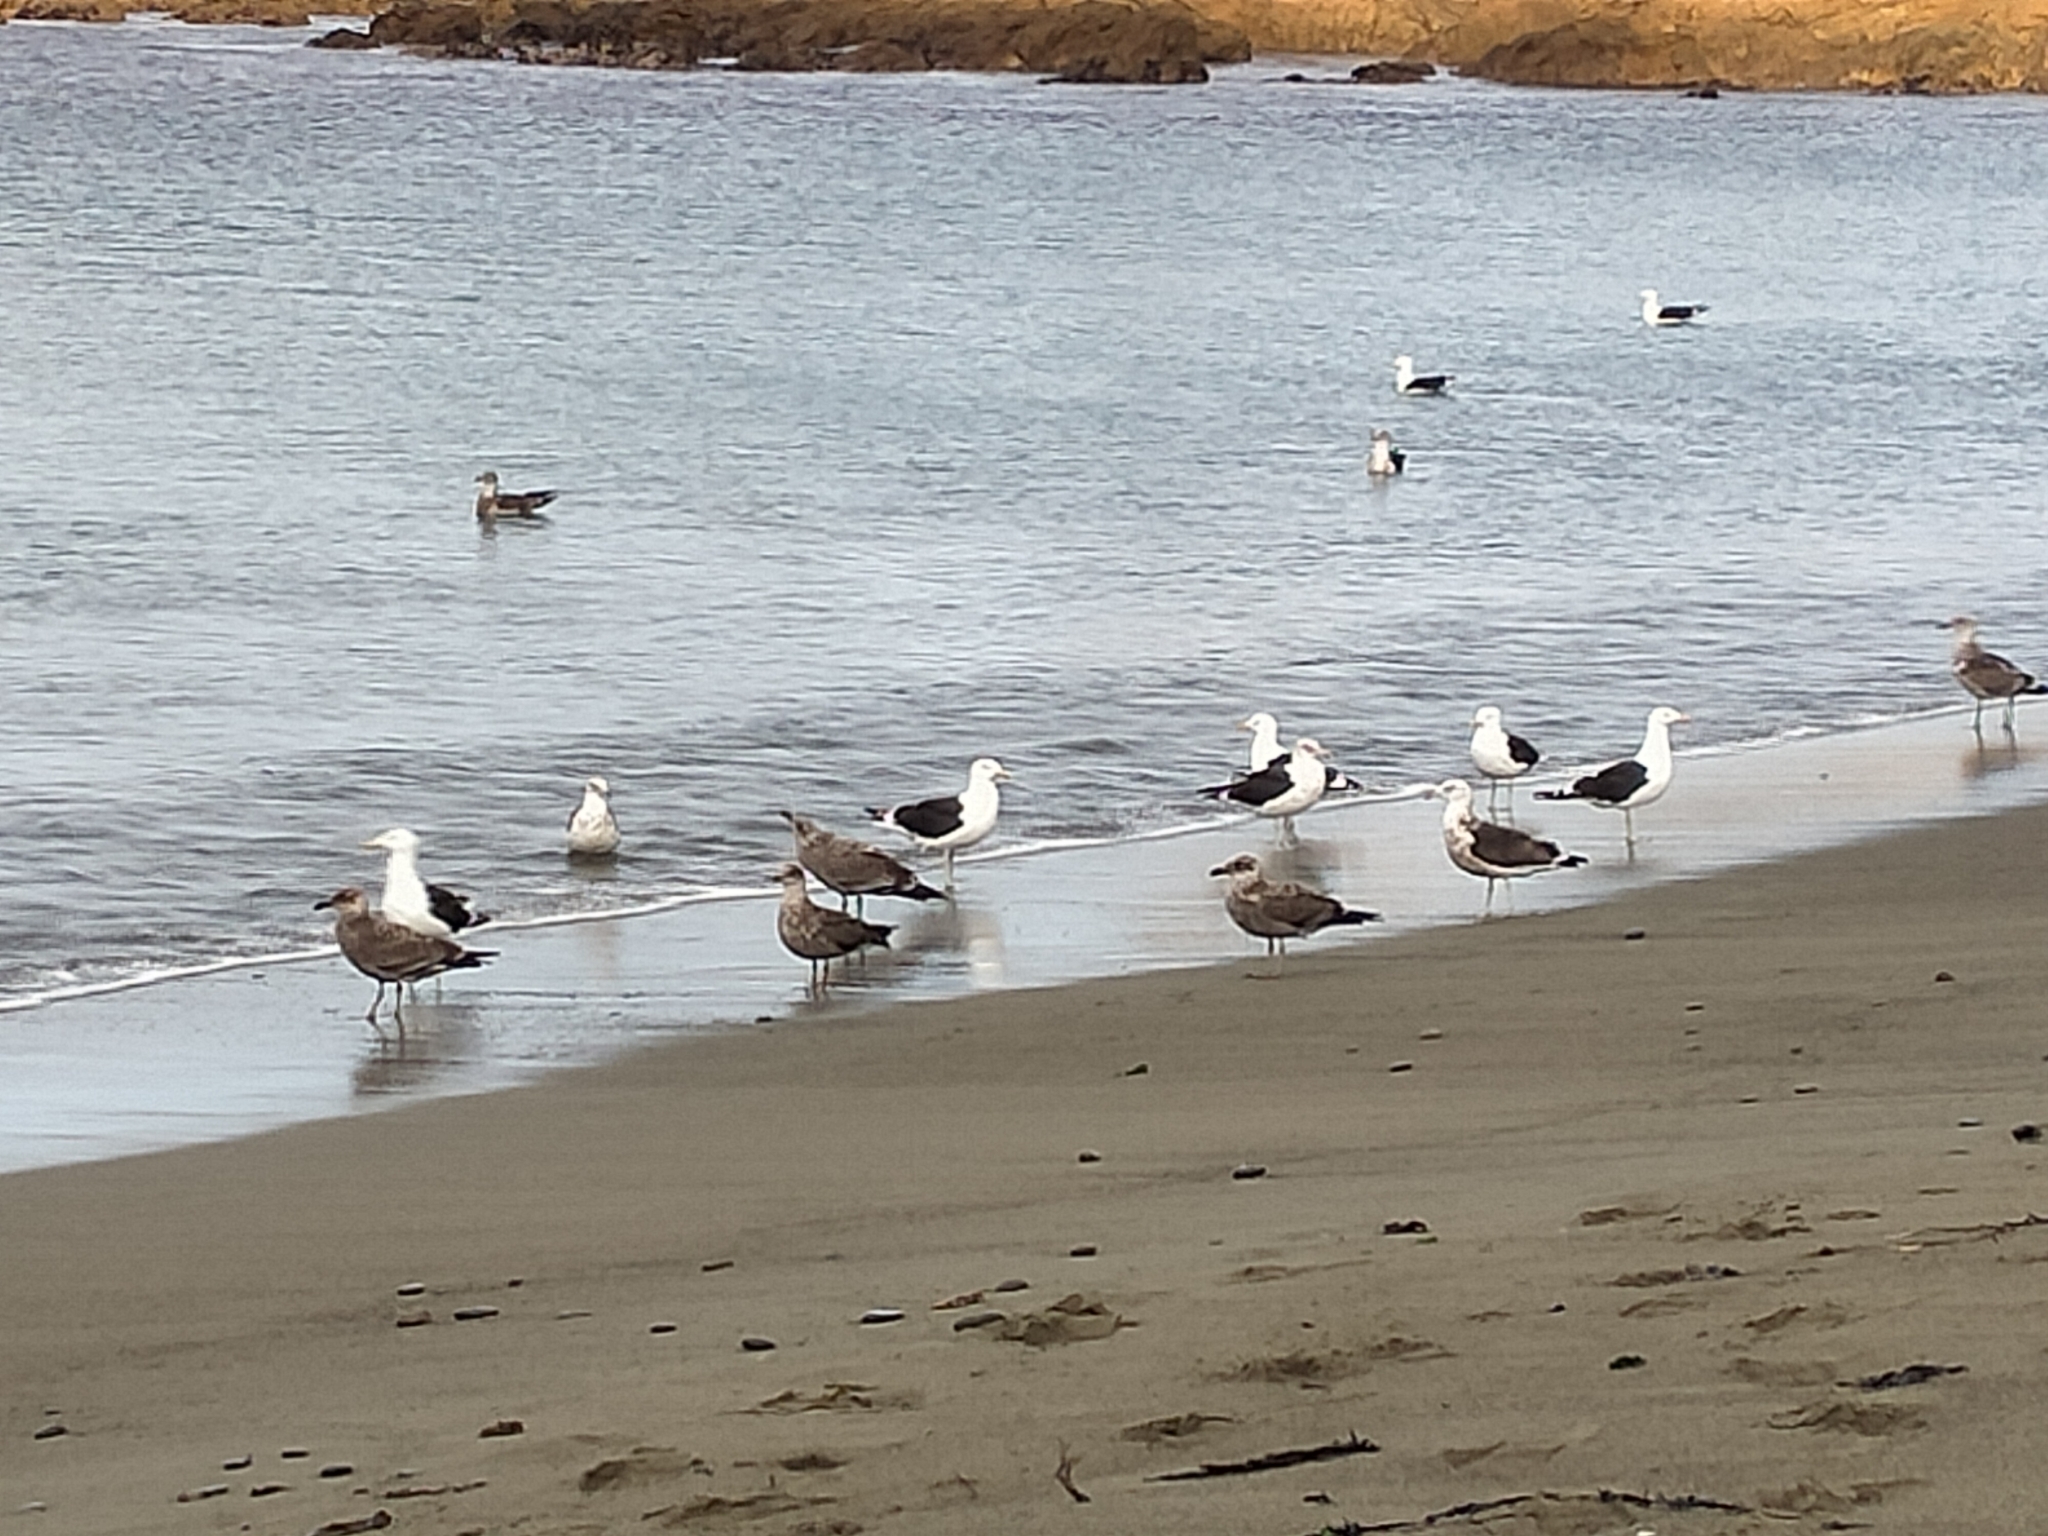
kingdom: Animalia
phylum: Chordata
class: Aves
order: Charadriiformes
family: Laridae
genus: Larus
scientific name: Larus dominicanus
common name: Kelp gull
